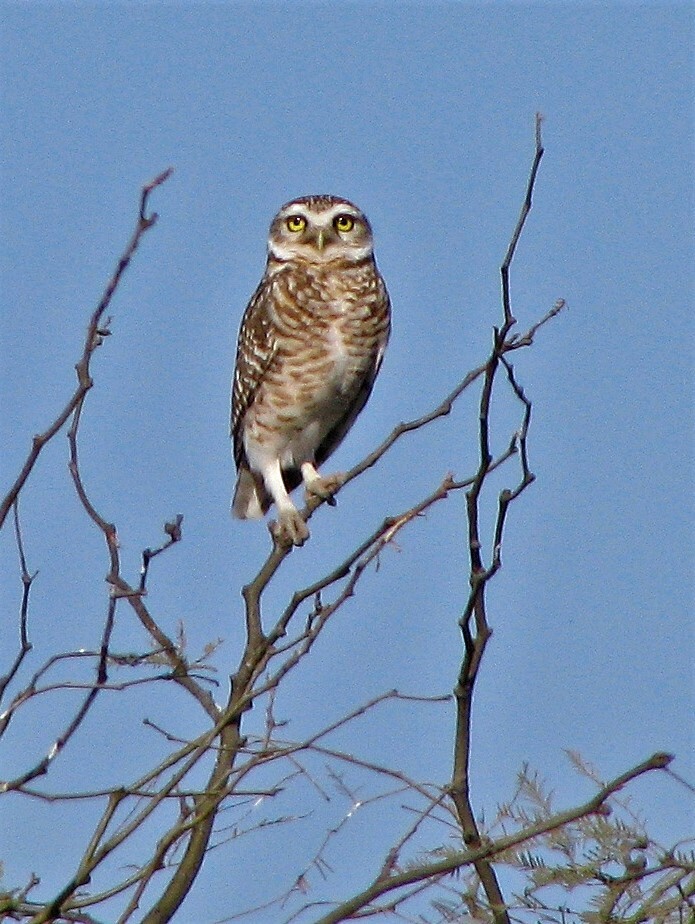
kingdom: Animalia
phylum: Chordata
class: Aves
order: Strigiformes
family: Strigidae
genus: Athene
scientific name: Athene cunicularia
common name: Burrowing owl
